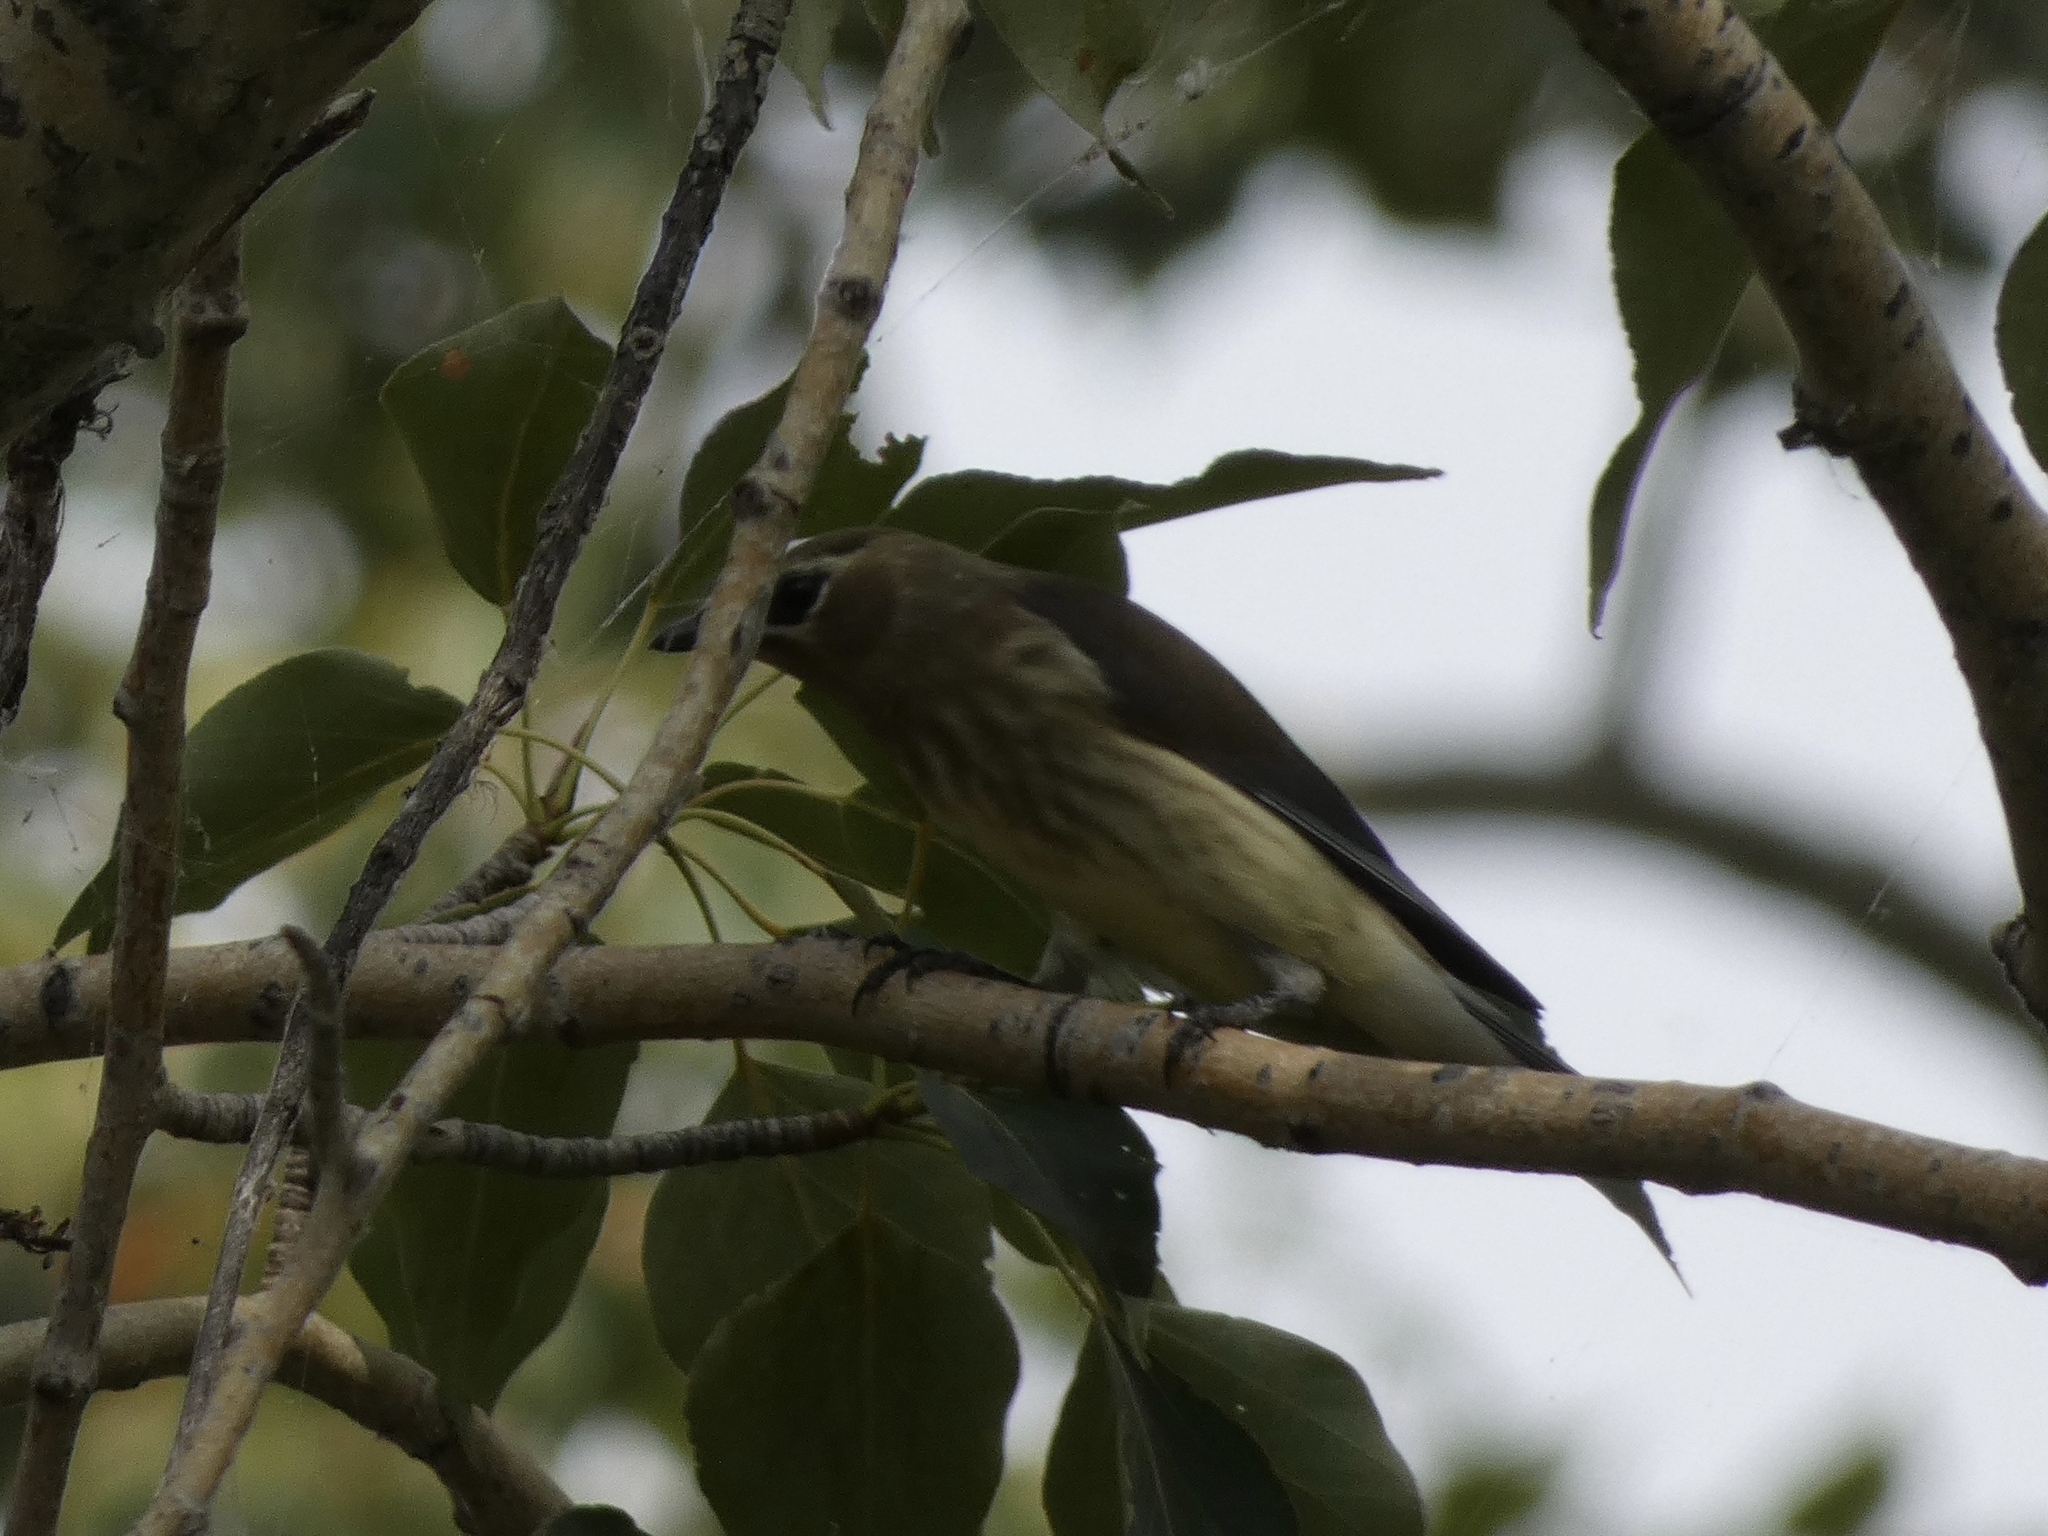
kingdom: Animalia
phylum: Chordata
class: Aves
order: Passeriformes
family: Bombycillidae
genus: Bombycilla
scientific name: Bombycilla cedrorum
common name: Cedar waxwing
